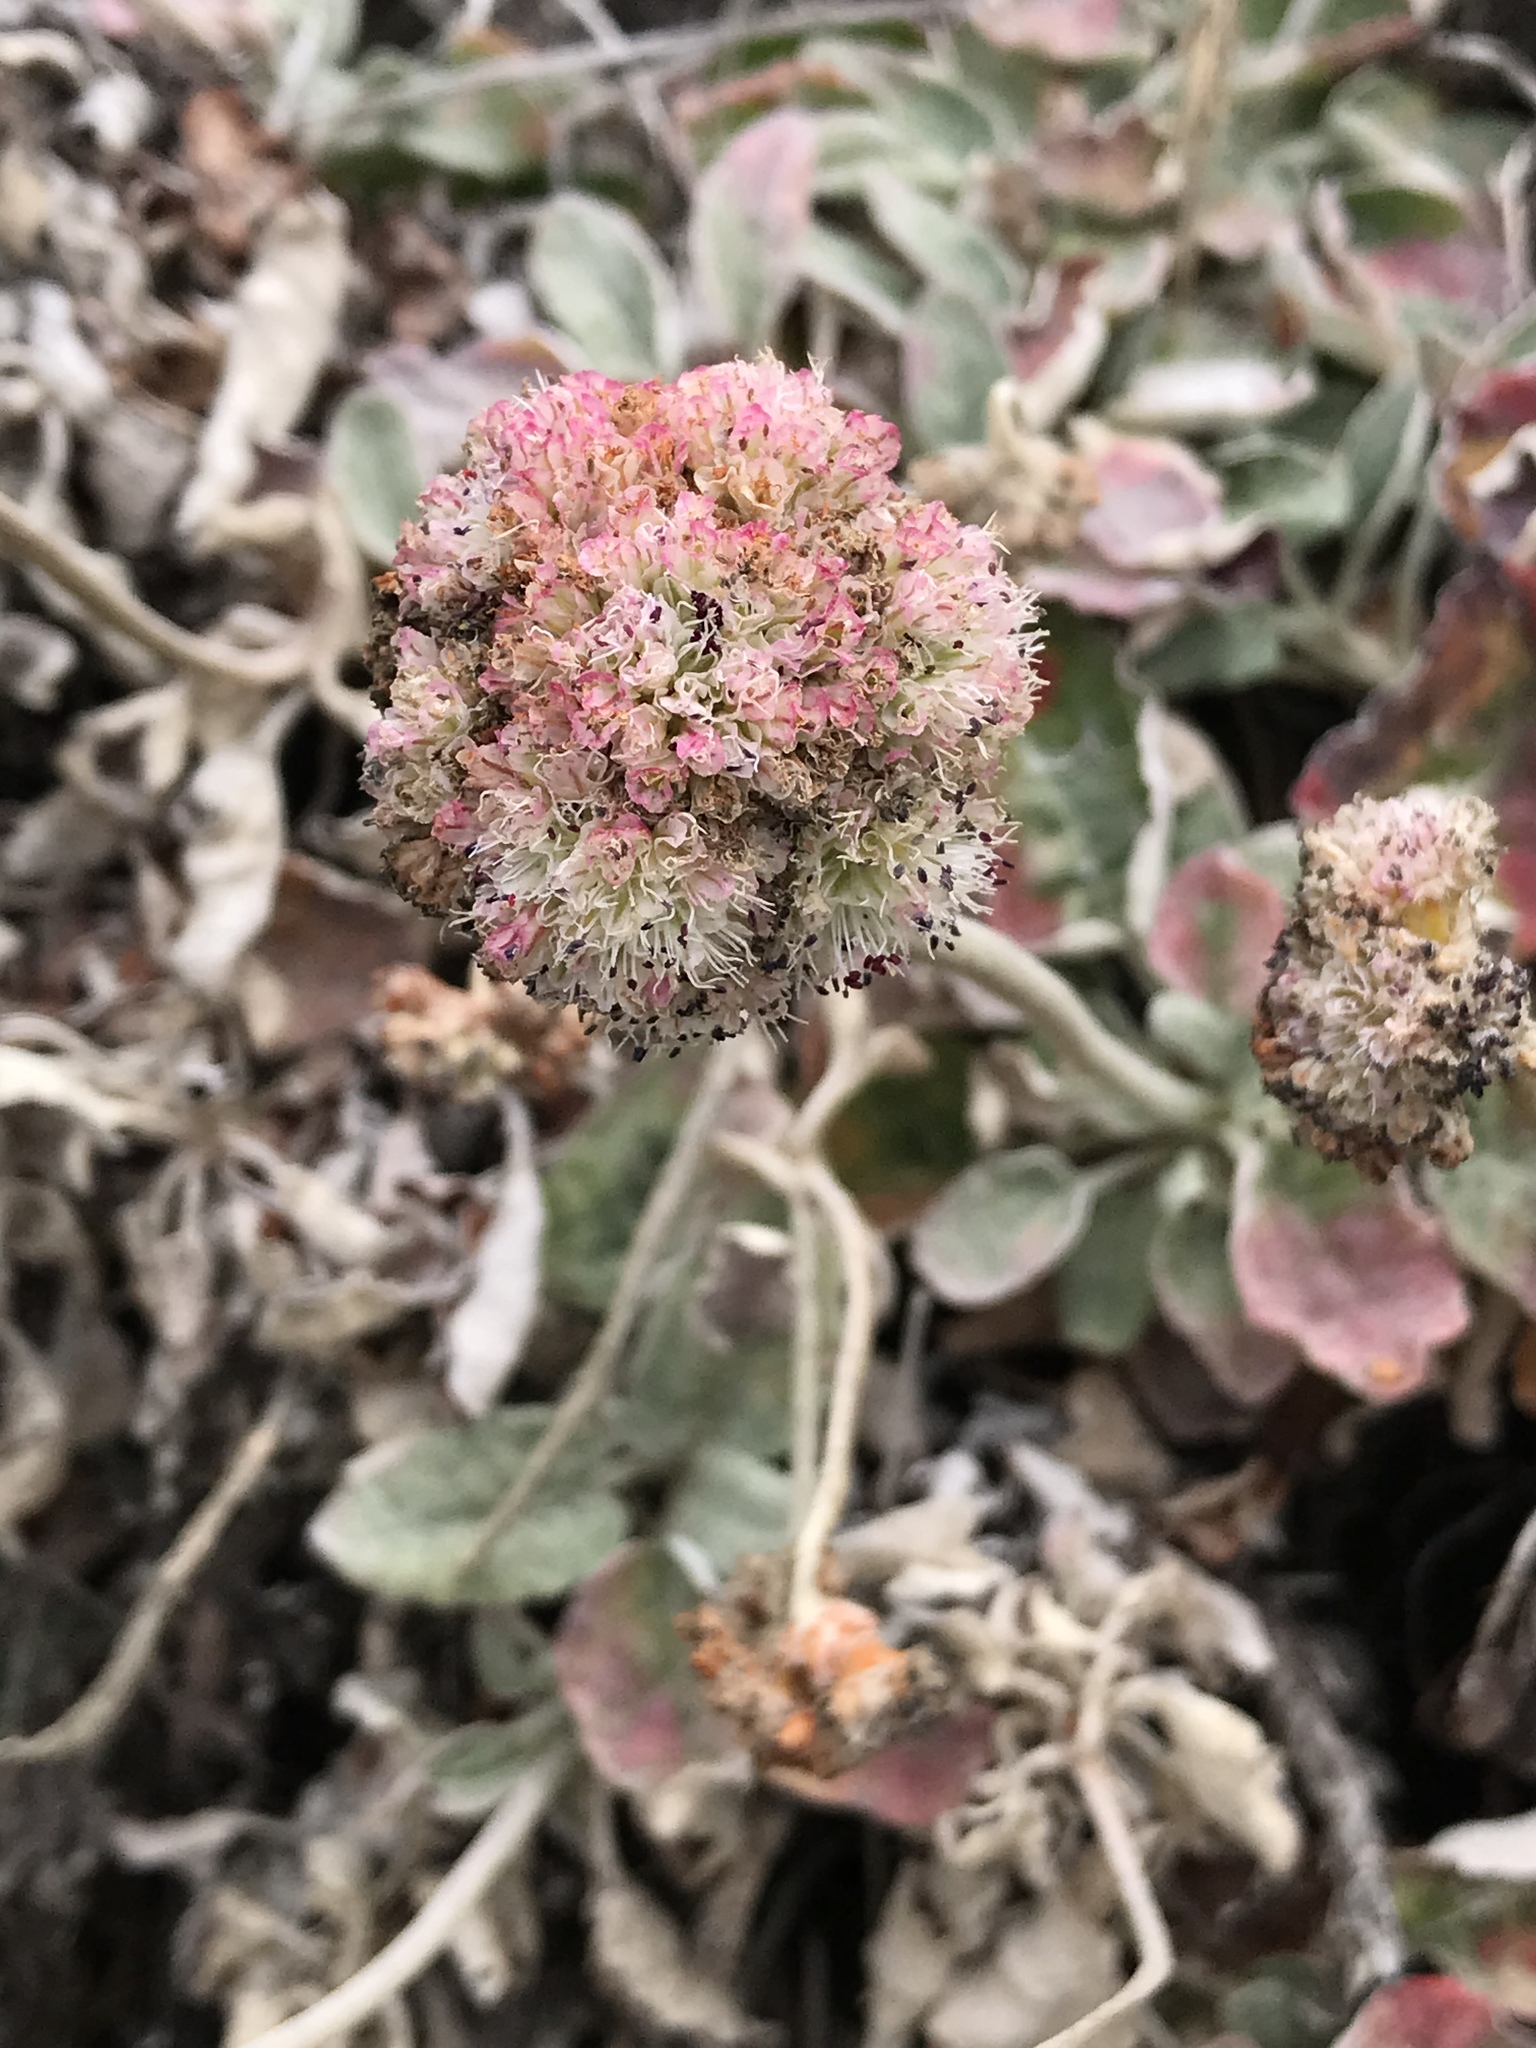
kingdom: Plantae
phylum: Tracheophyta
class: Magnoliopsida
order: Caryophyllales
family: Polygonaceae
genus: Eriogonum
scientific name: Eriogonum latifolium
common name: Seaside wild buckwheat
